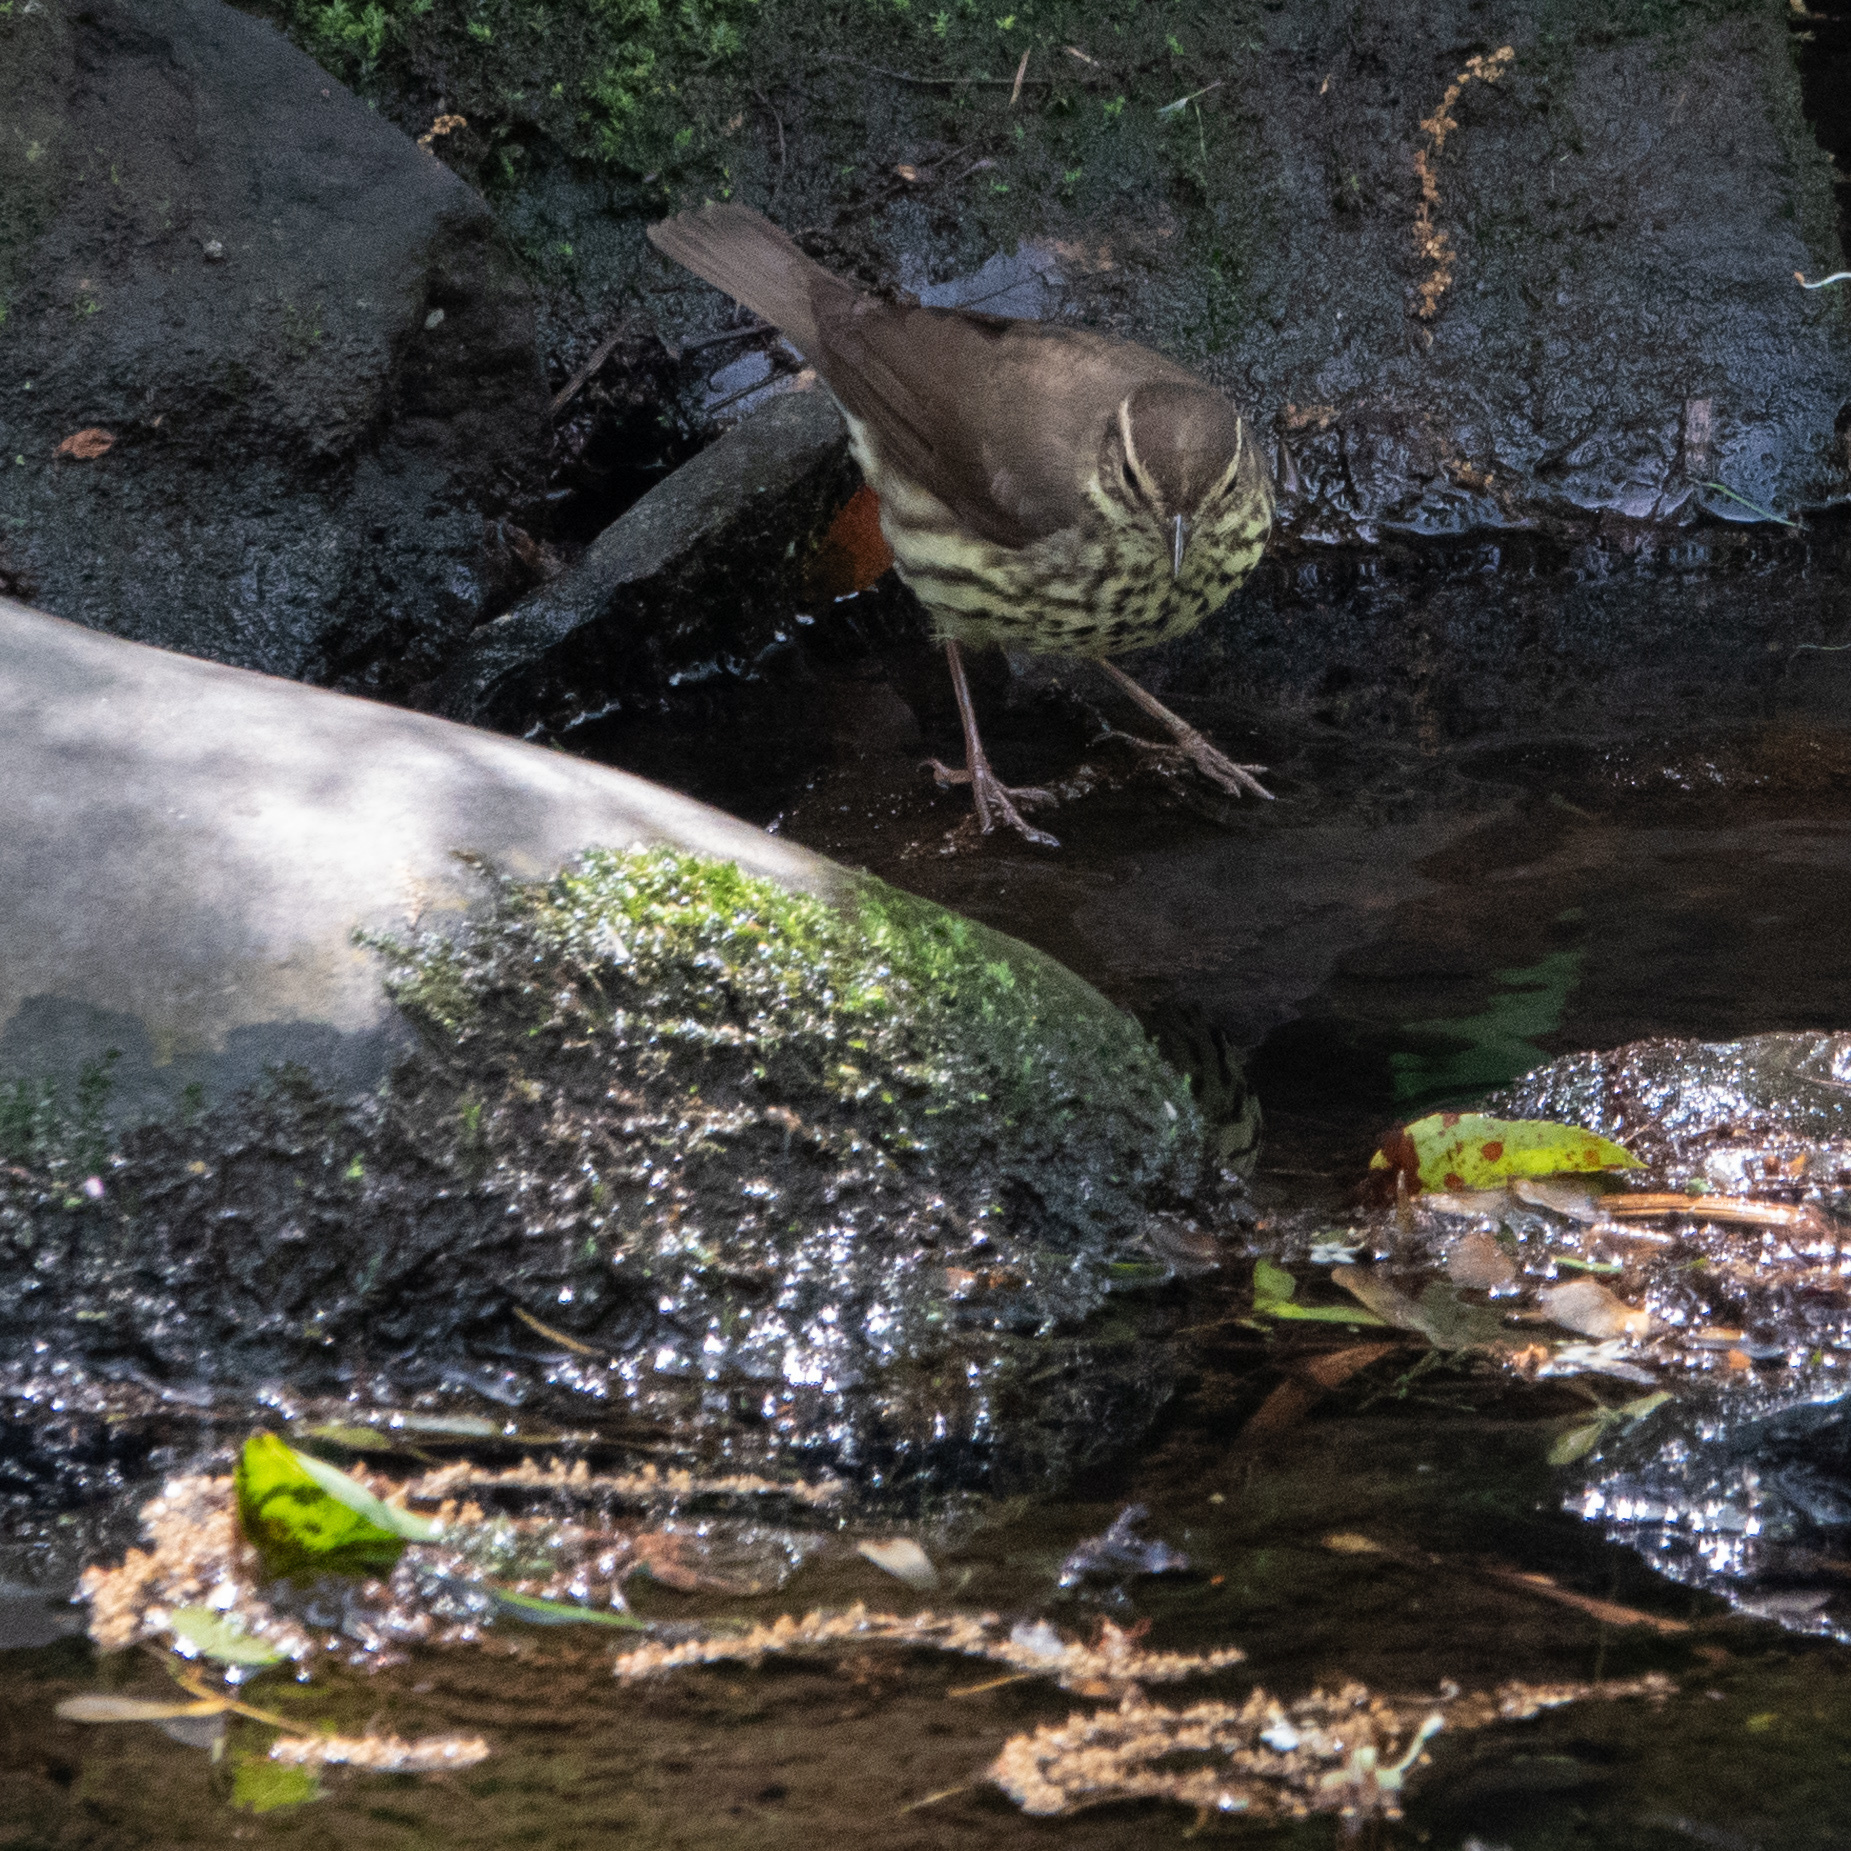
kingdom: Animalia
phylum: Chordata
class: Aves
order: Passeriformes
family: Parulidae
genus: Parkesia
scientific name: Parkesia noveboracensis
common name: Northern waterthrush
